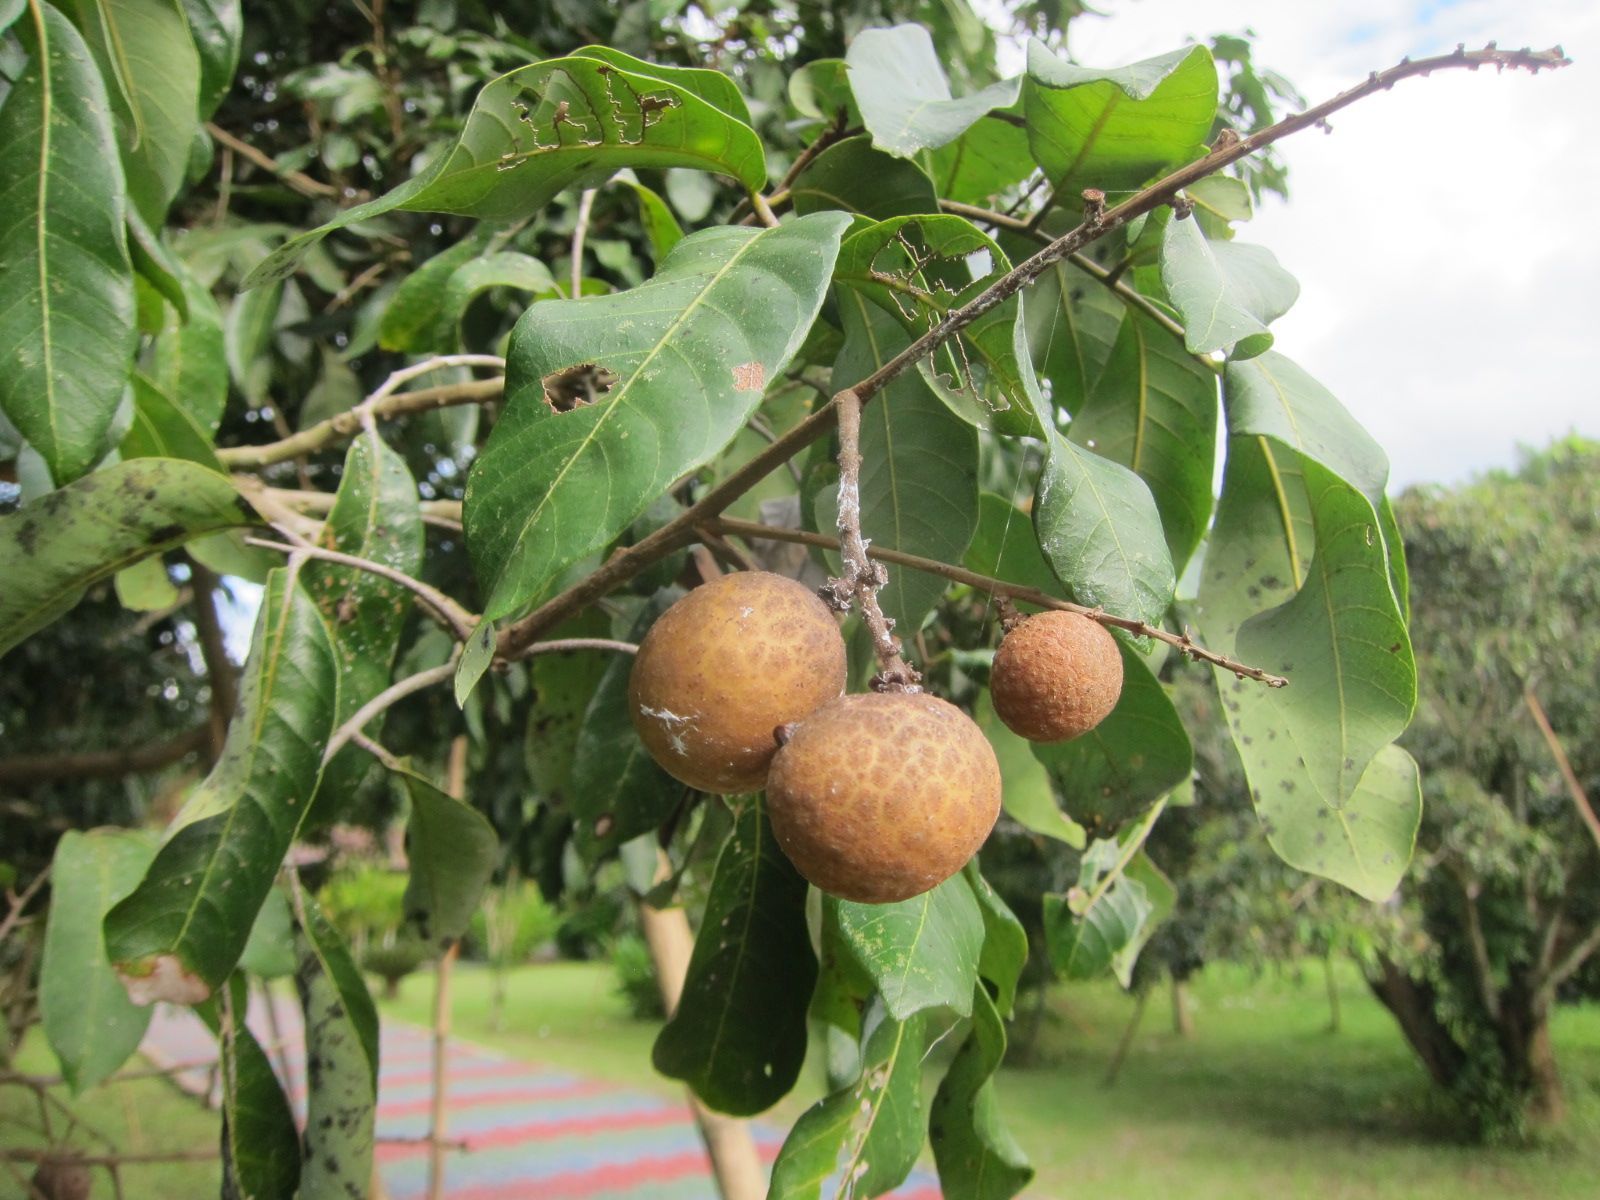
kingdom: Plantae
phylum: Tracheophyta
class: Magnoliopsida
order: Sapindales
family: Sapindaceae
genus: Dimocarpus
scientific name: Dimocarpus longan
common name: Longan
